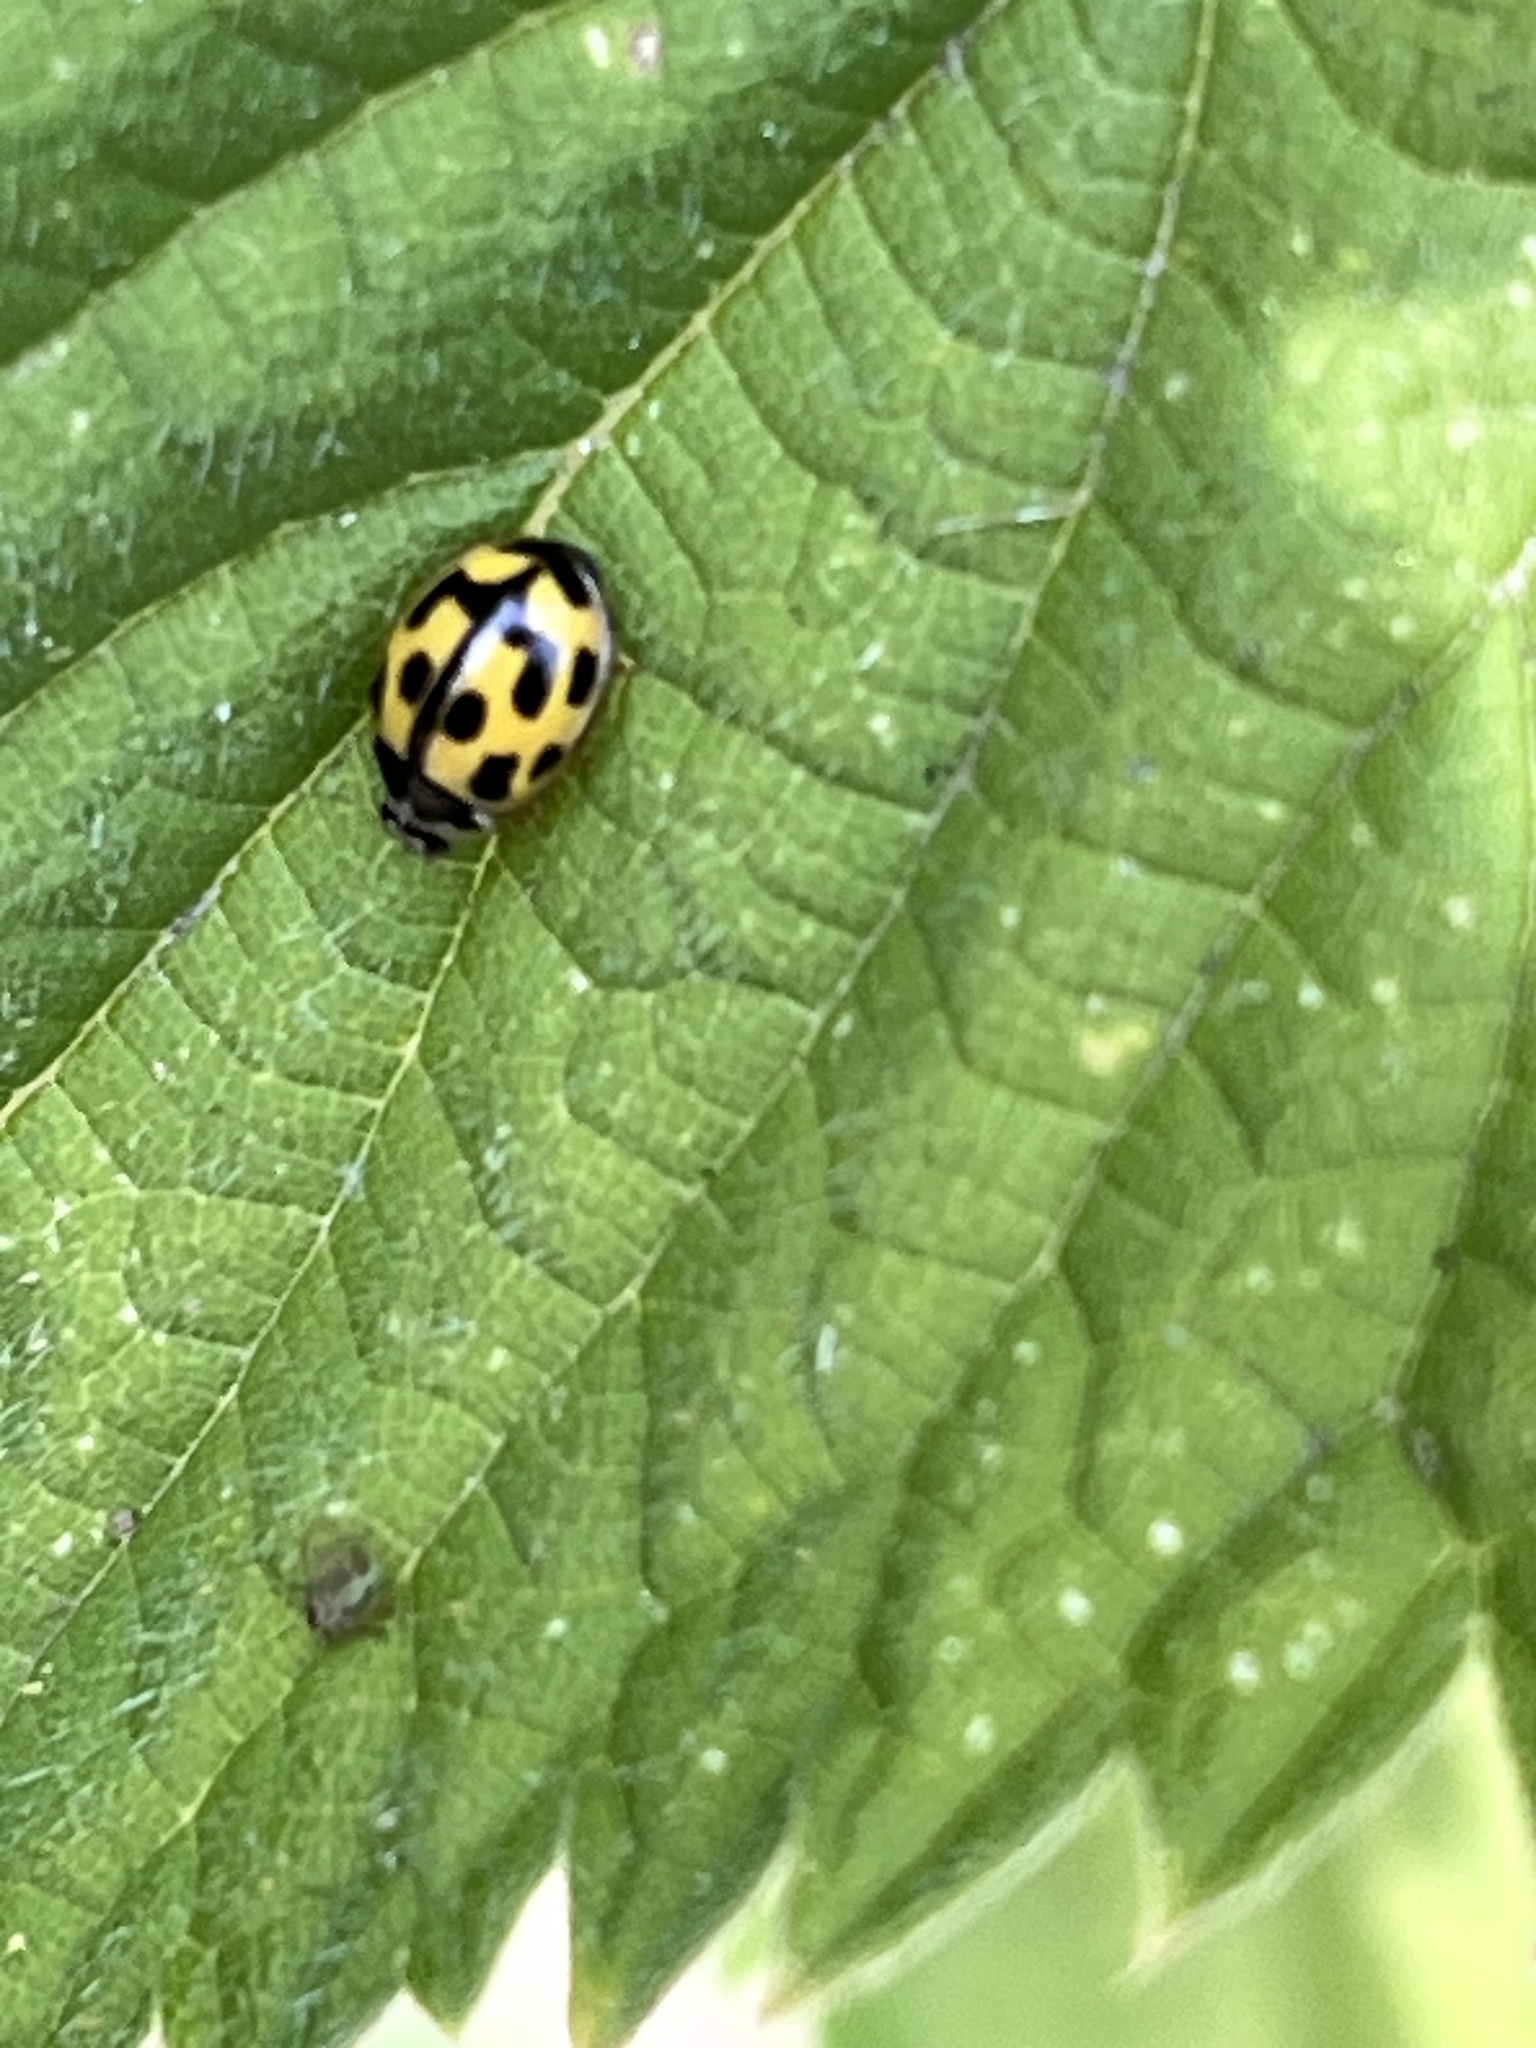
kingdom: Animalia
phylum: Arthropoda
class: Insecta
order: Coleoptera
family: Coccinellidae
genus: Propylaea
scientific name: Propylaea quatuordecimpunctata
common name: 14-spotted ladybird beetle
